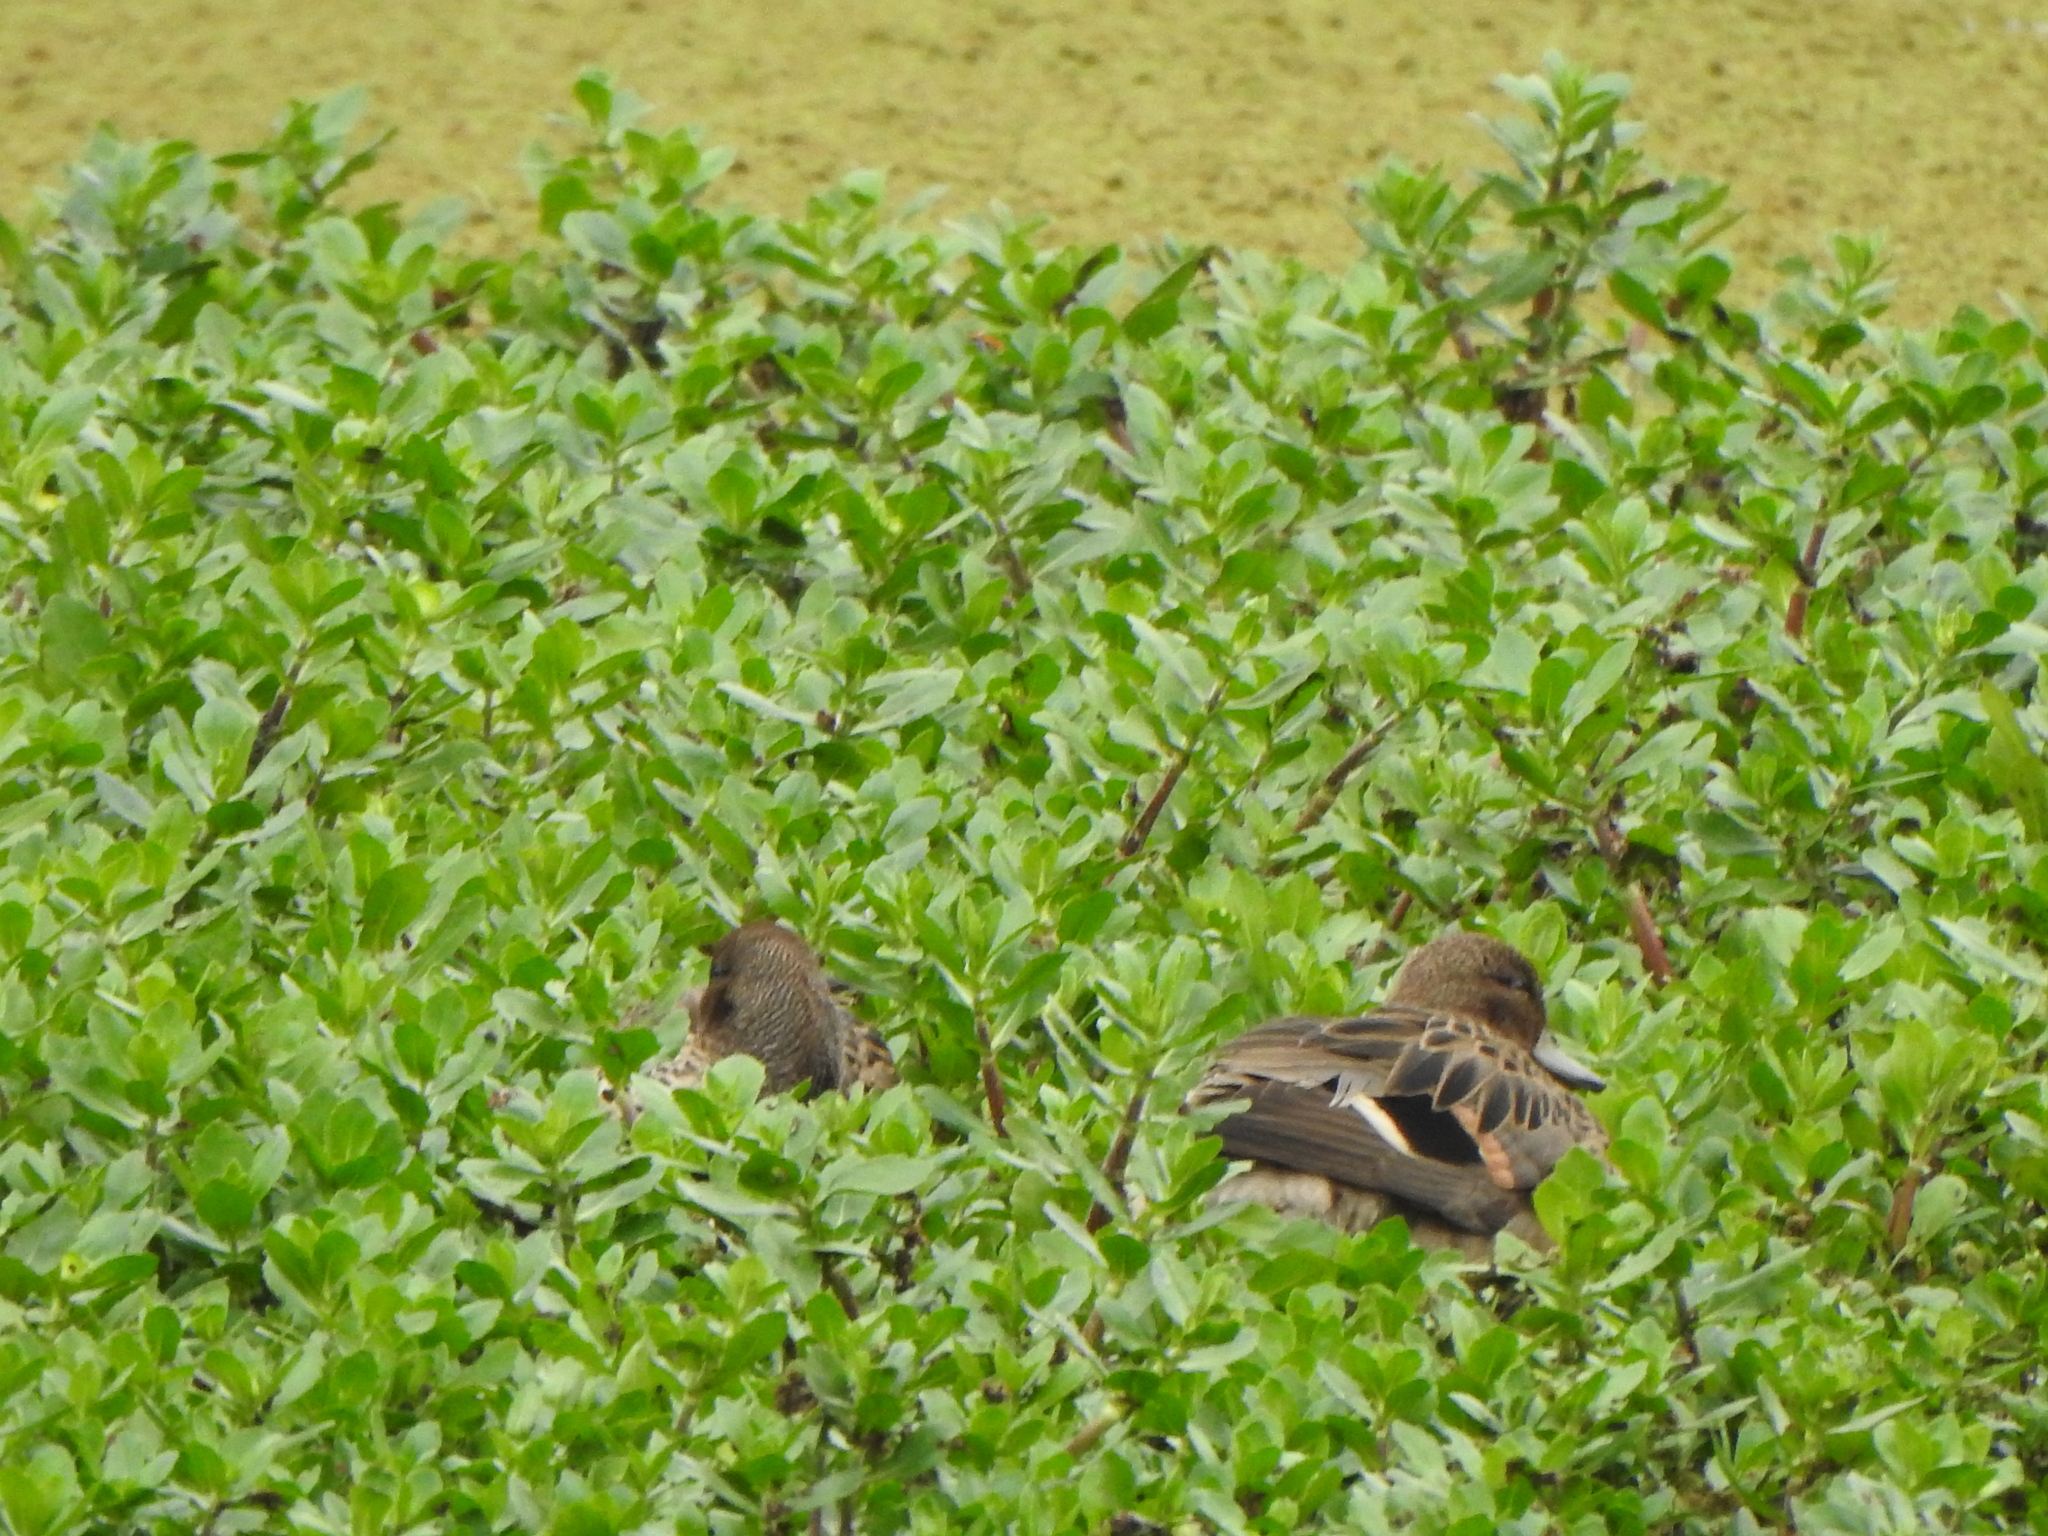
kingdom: Animalia
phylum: Chordata
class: Aves
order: Anseriformes
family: Anatidae
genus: Anas
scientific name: Anas flavirostris
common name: Yellow-billed teal
